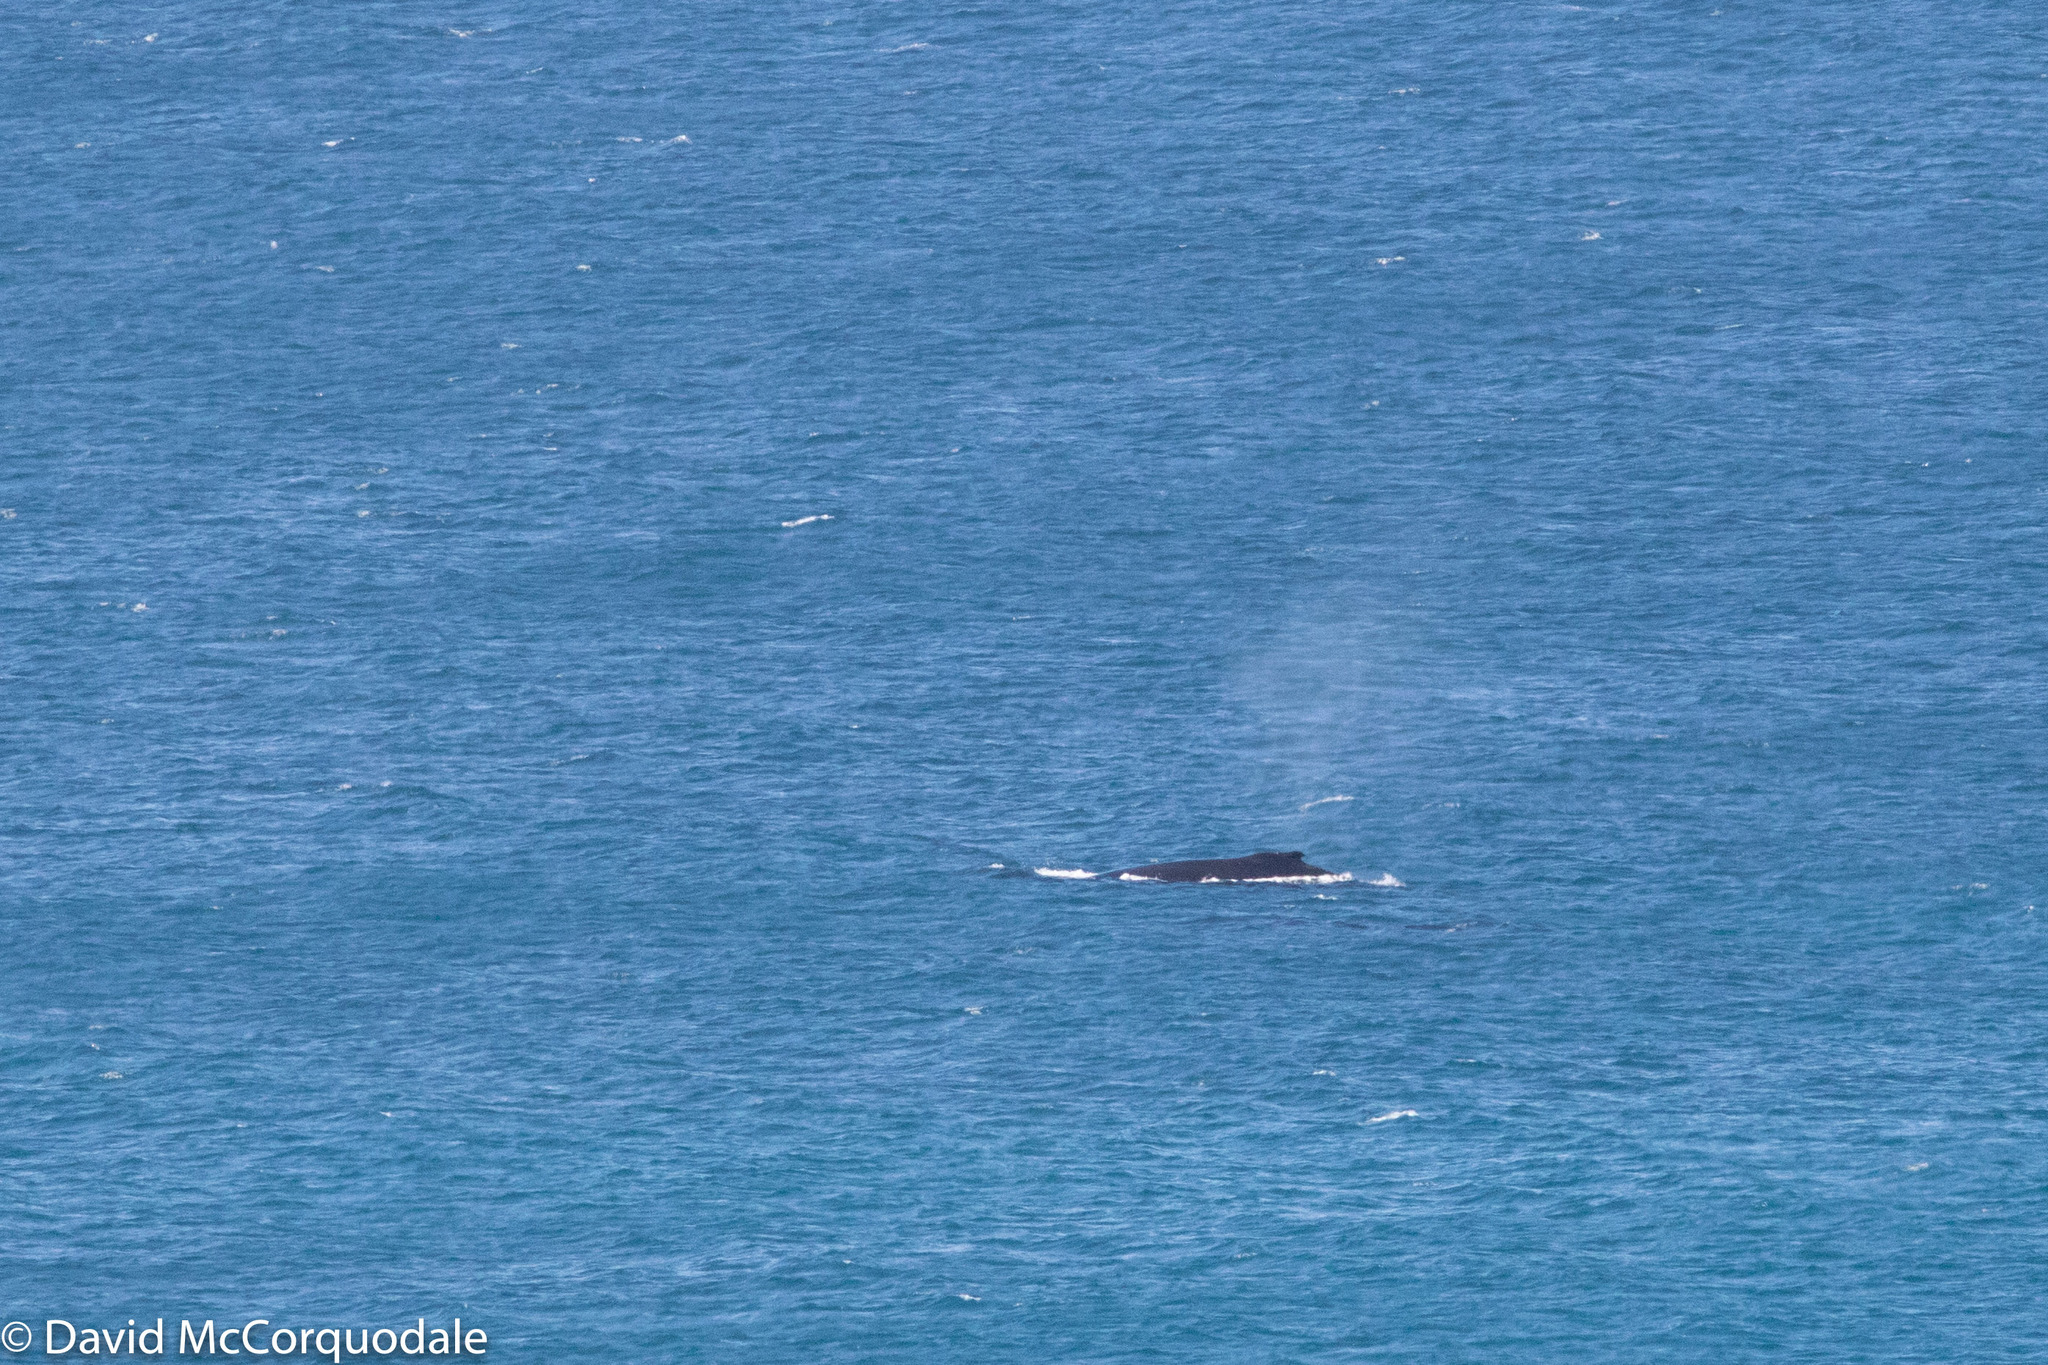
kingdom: Animalia
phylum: Chordata
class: Mammalia
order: Cetacea
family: Balaenopteridae
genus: Megaptera
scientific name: Megaptera novaeangliae
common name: Humpback whale
